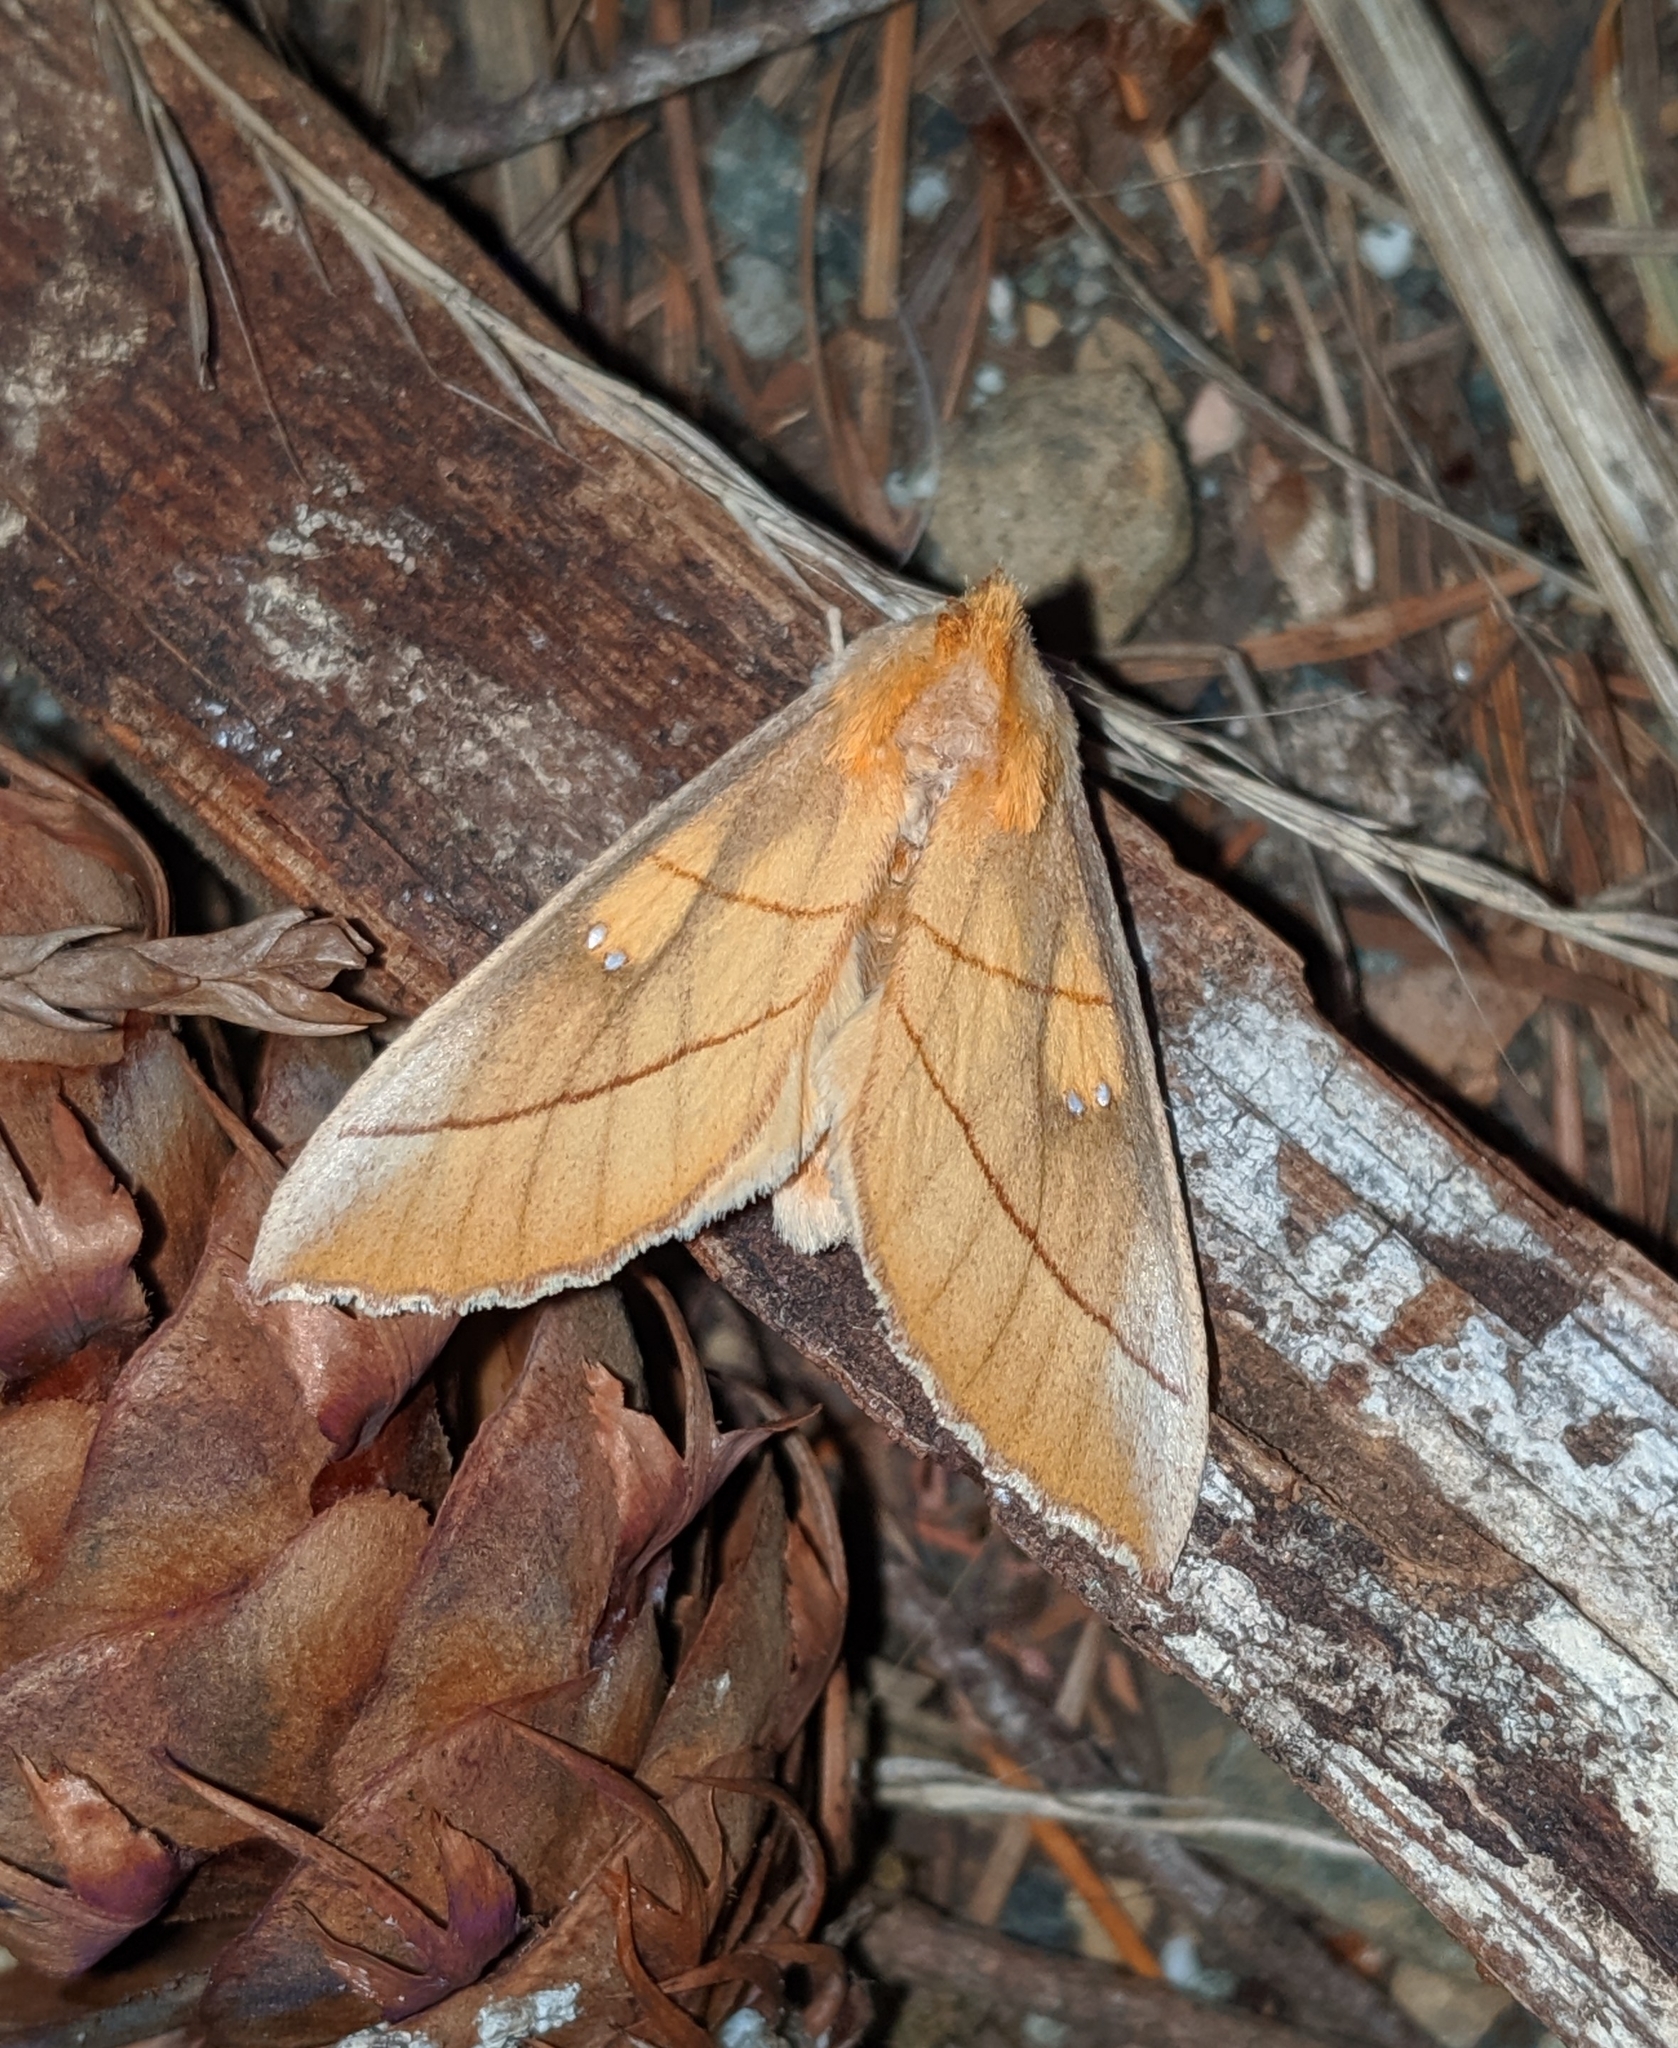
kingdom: Animalia
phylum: Arthropoda
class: Insecta
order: Lepidoptera
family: Notodontidae
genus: Nadata
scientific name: Nadata gibbosa
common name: White-dotted prominent
